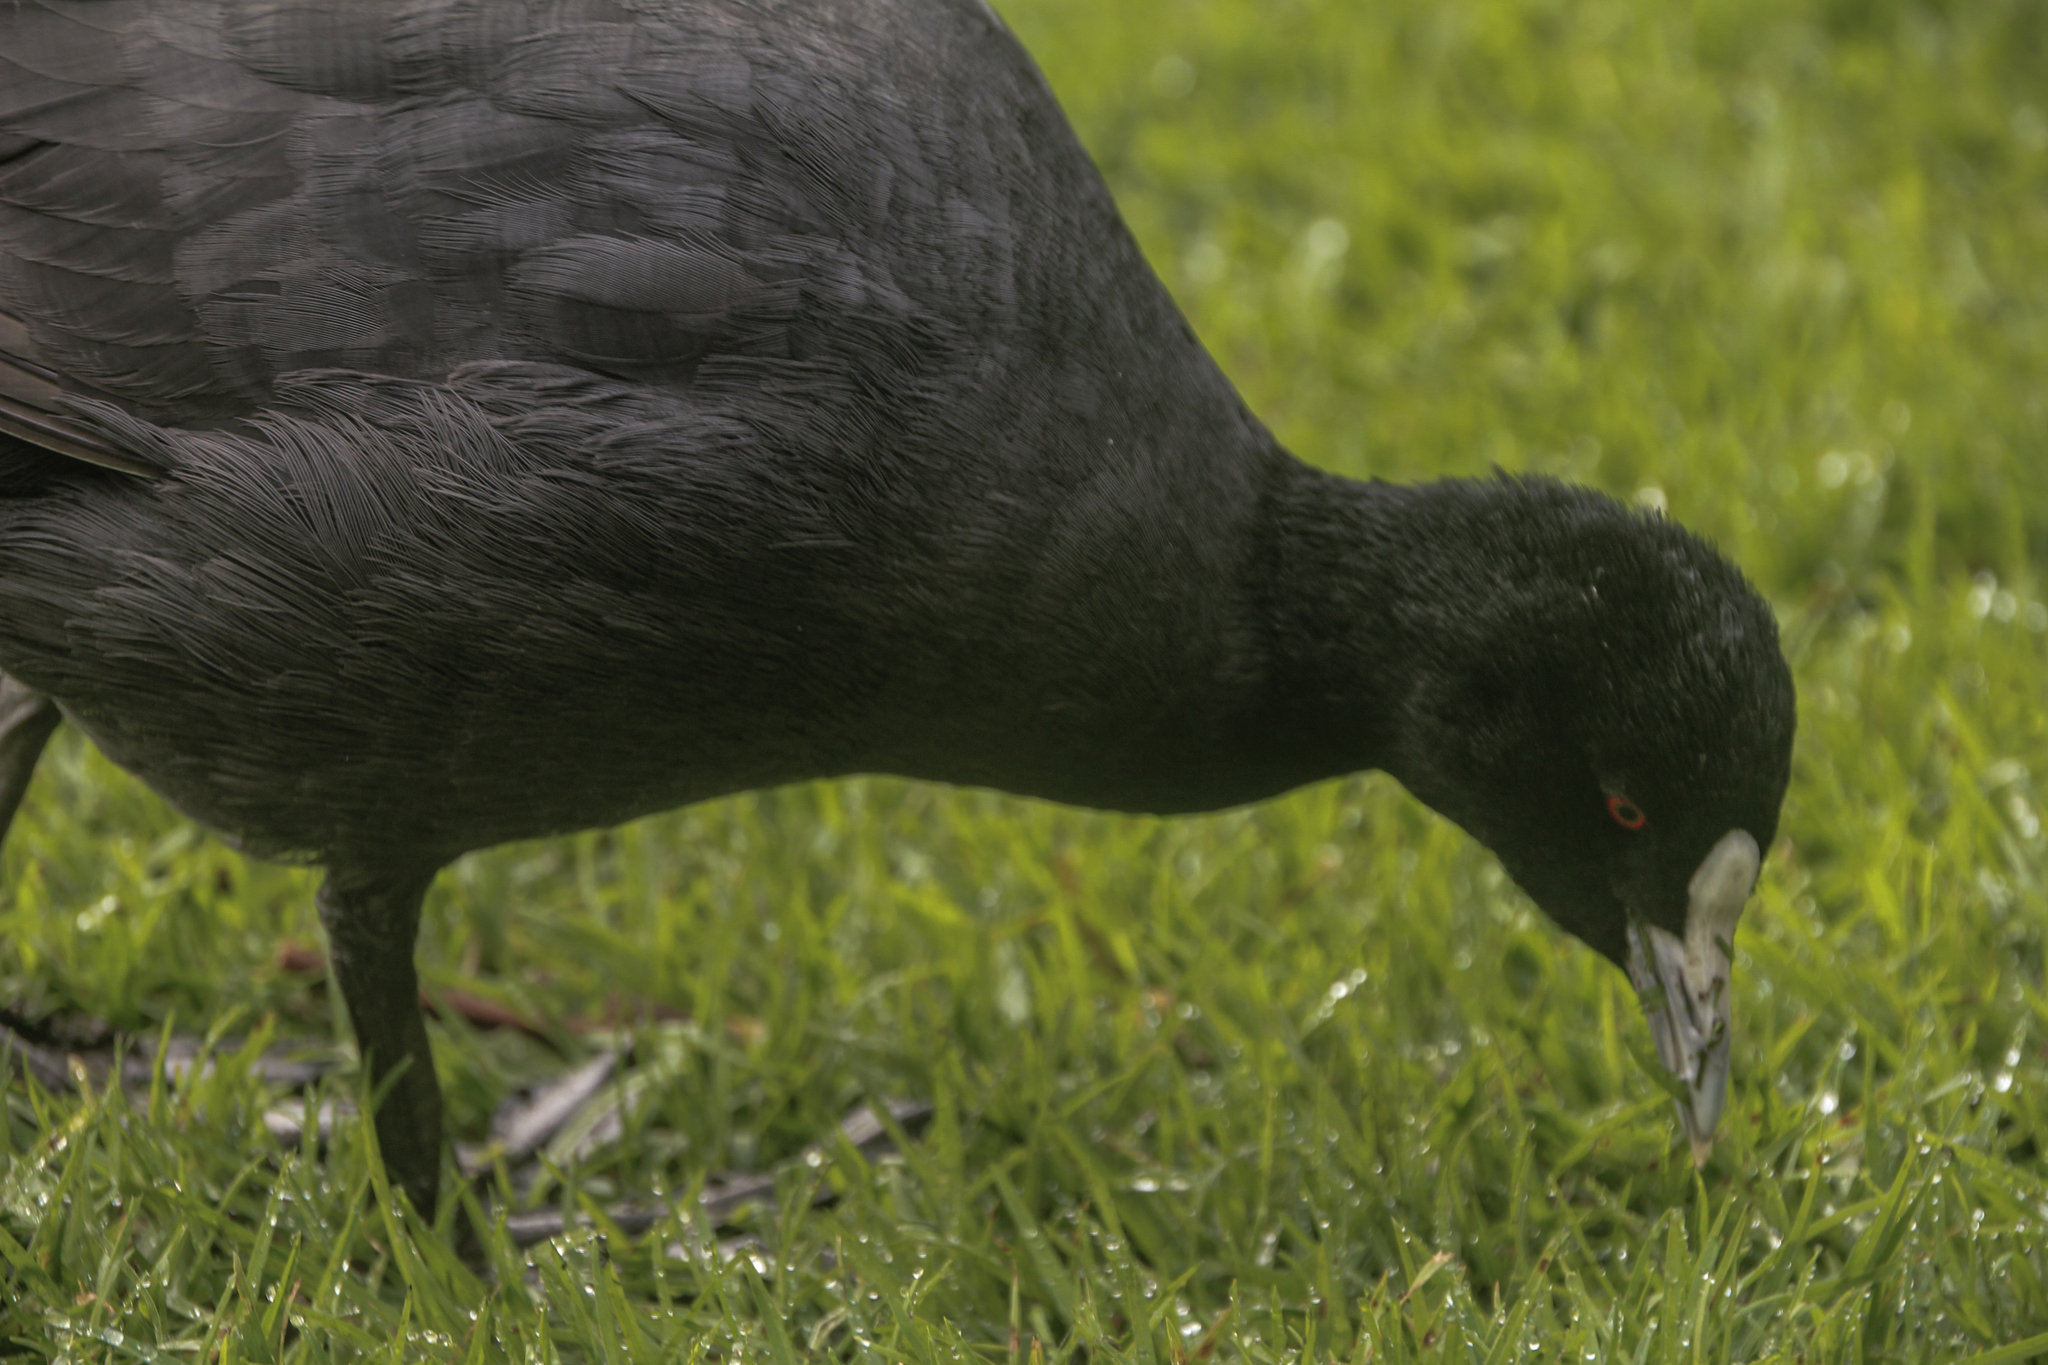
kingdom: Animalia
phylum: Chordata
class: Aves
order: Gruiformes
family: Rallidae
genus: Fulica
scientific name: Fulica atra
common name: Eurasian coot
